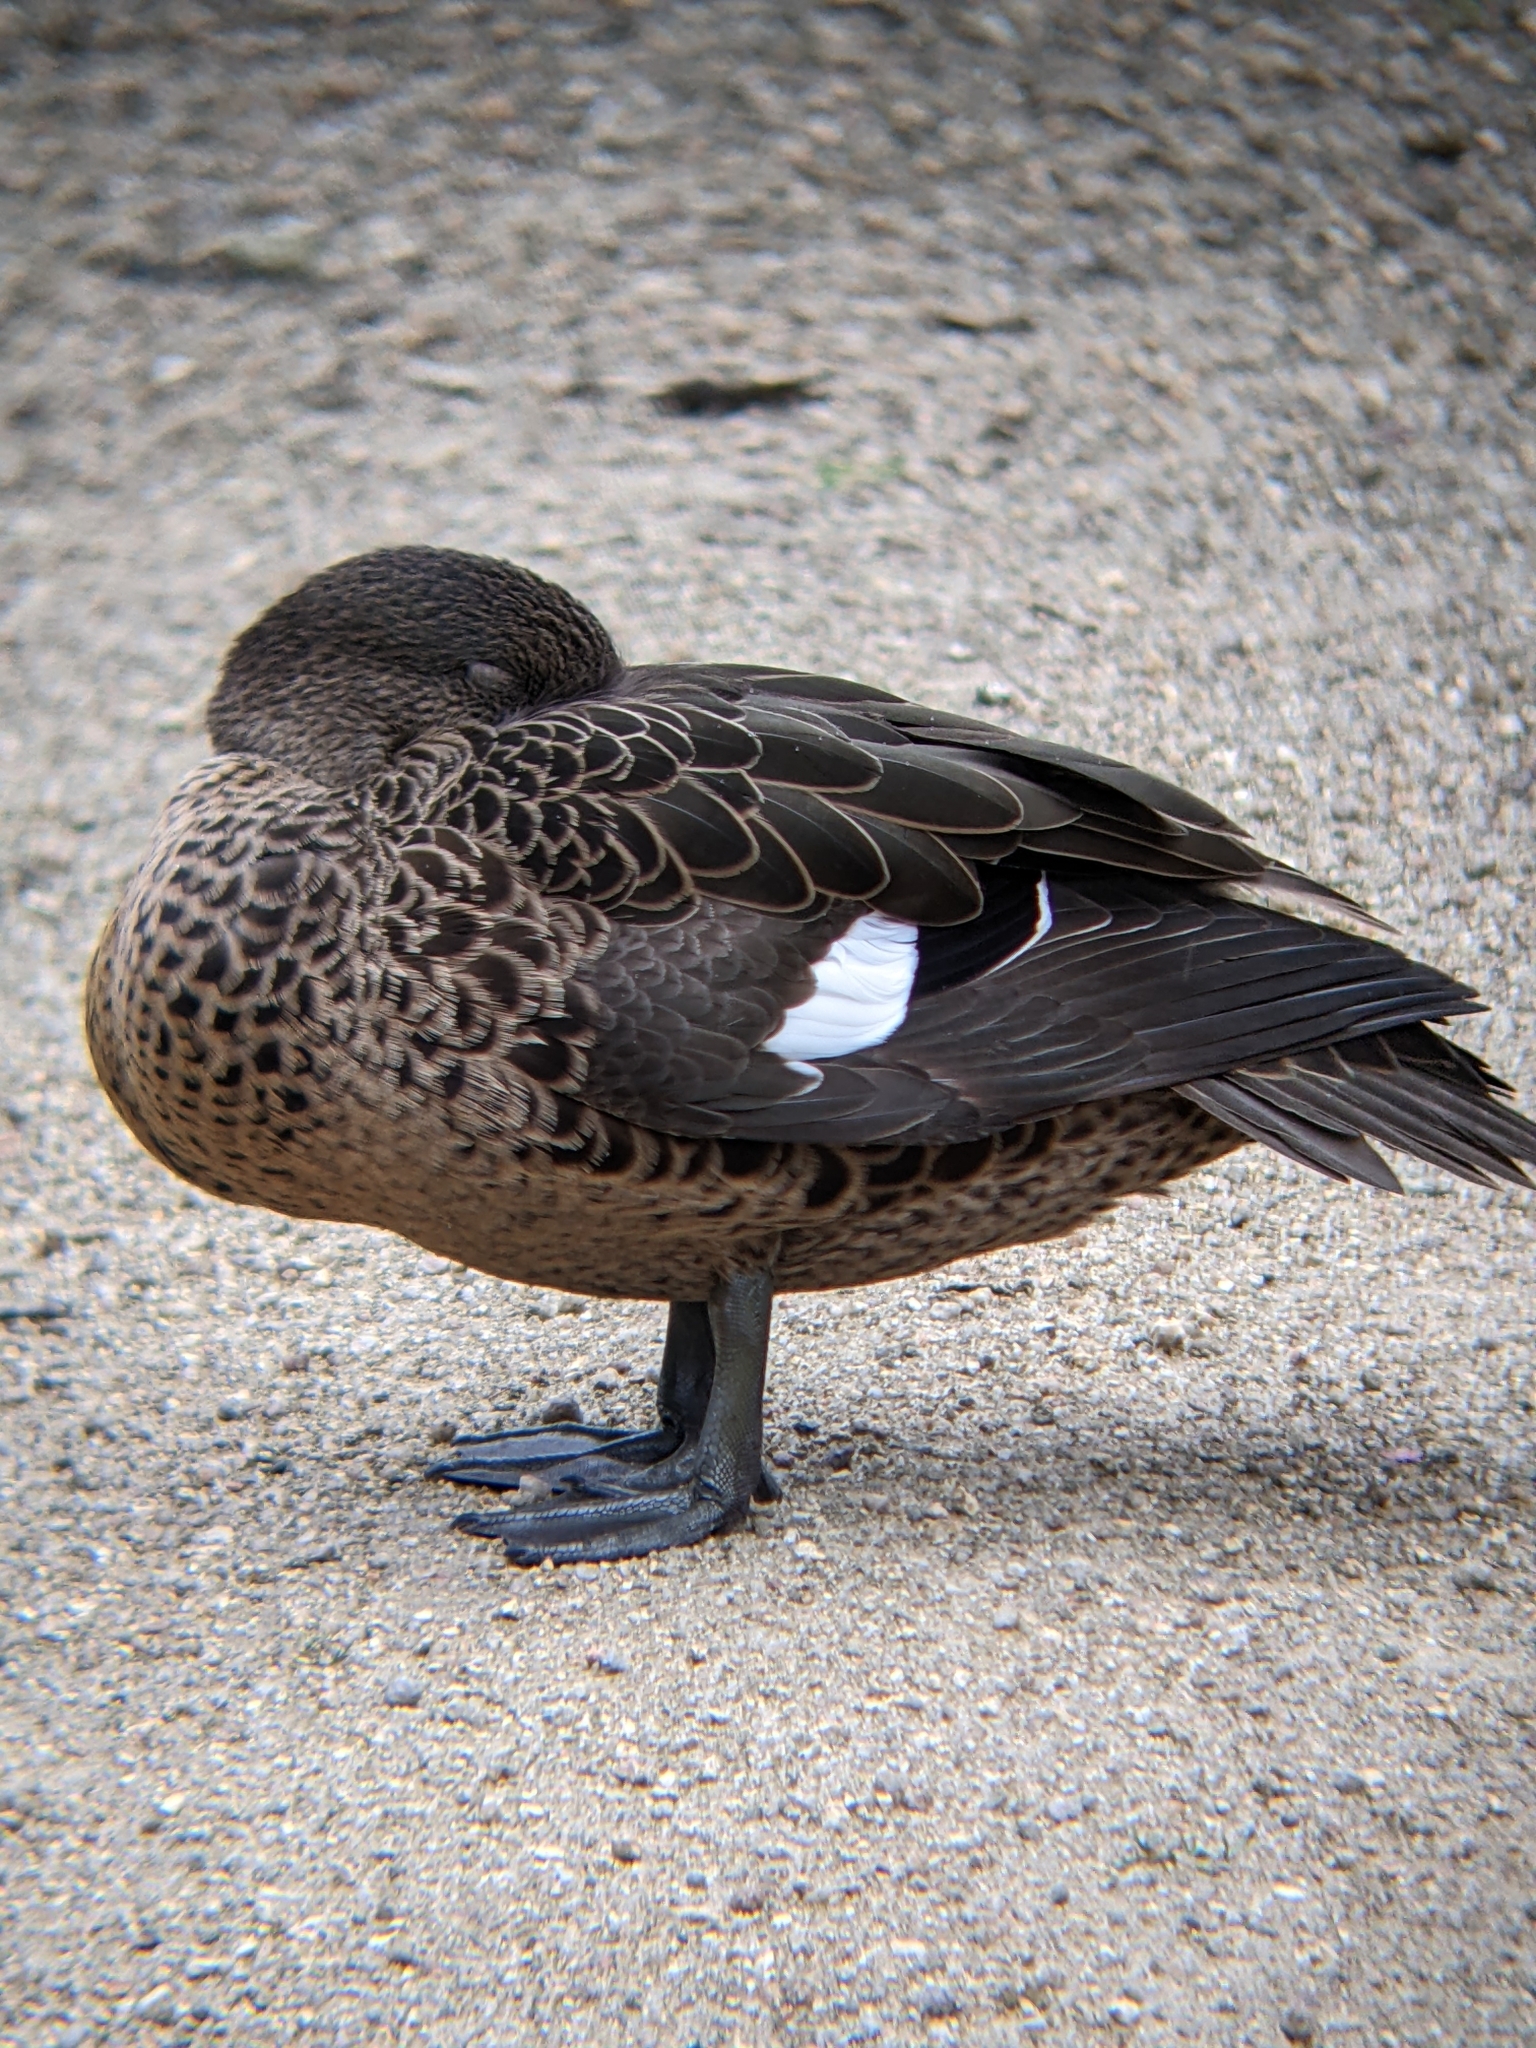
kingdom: Animalia
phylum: Chordata
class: Aves
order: Anseriformes
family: Anatidae
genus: Anas
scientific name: Anas castanea
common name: Chestnut teal
